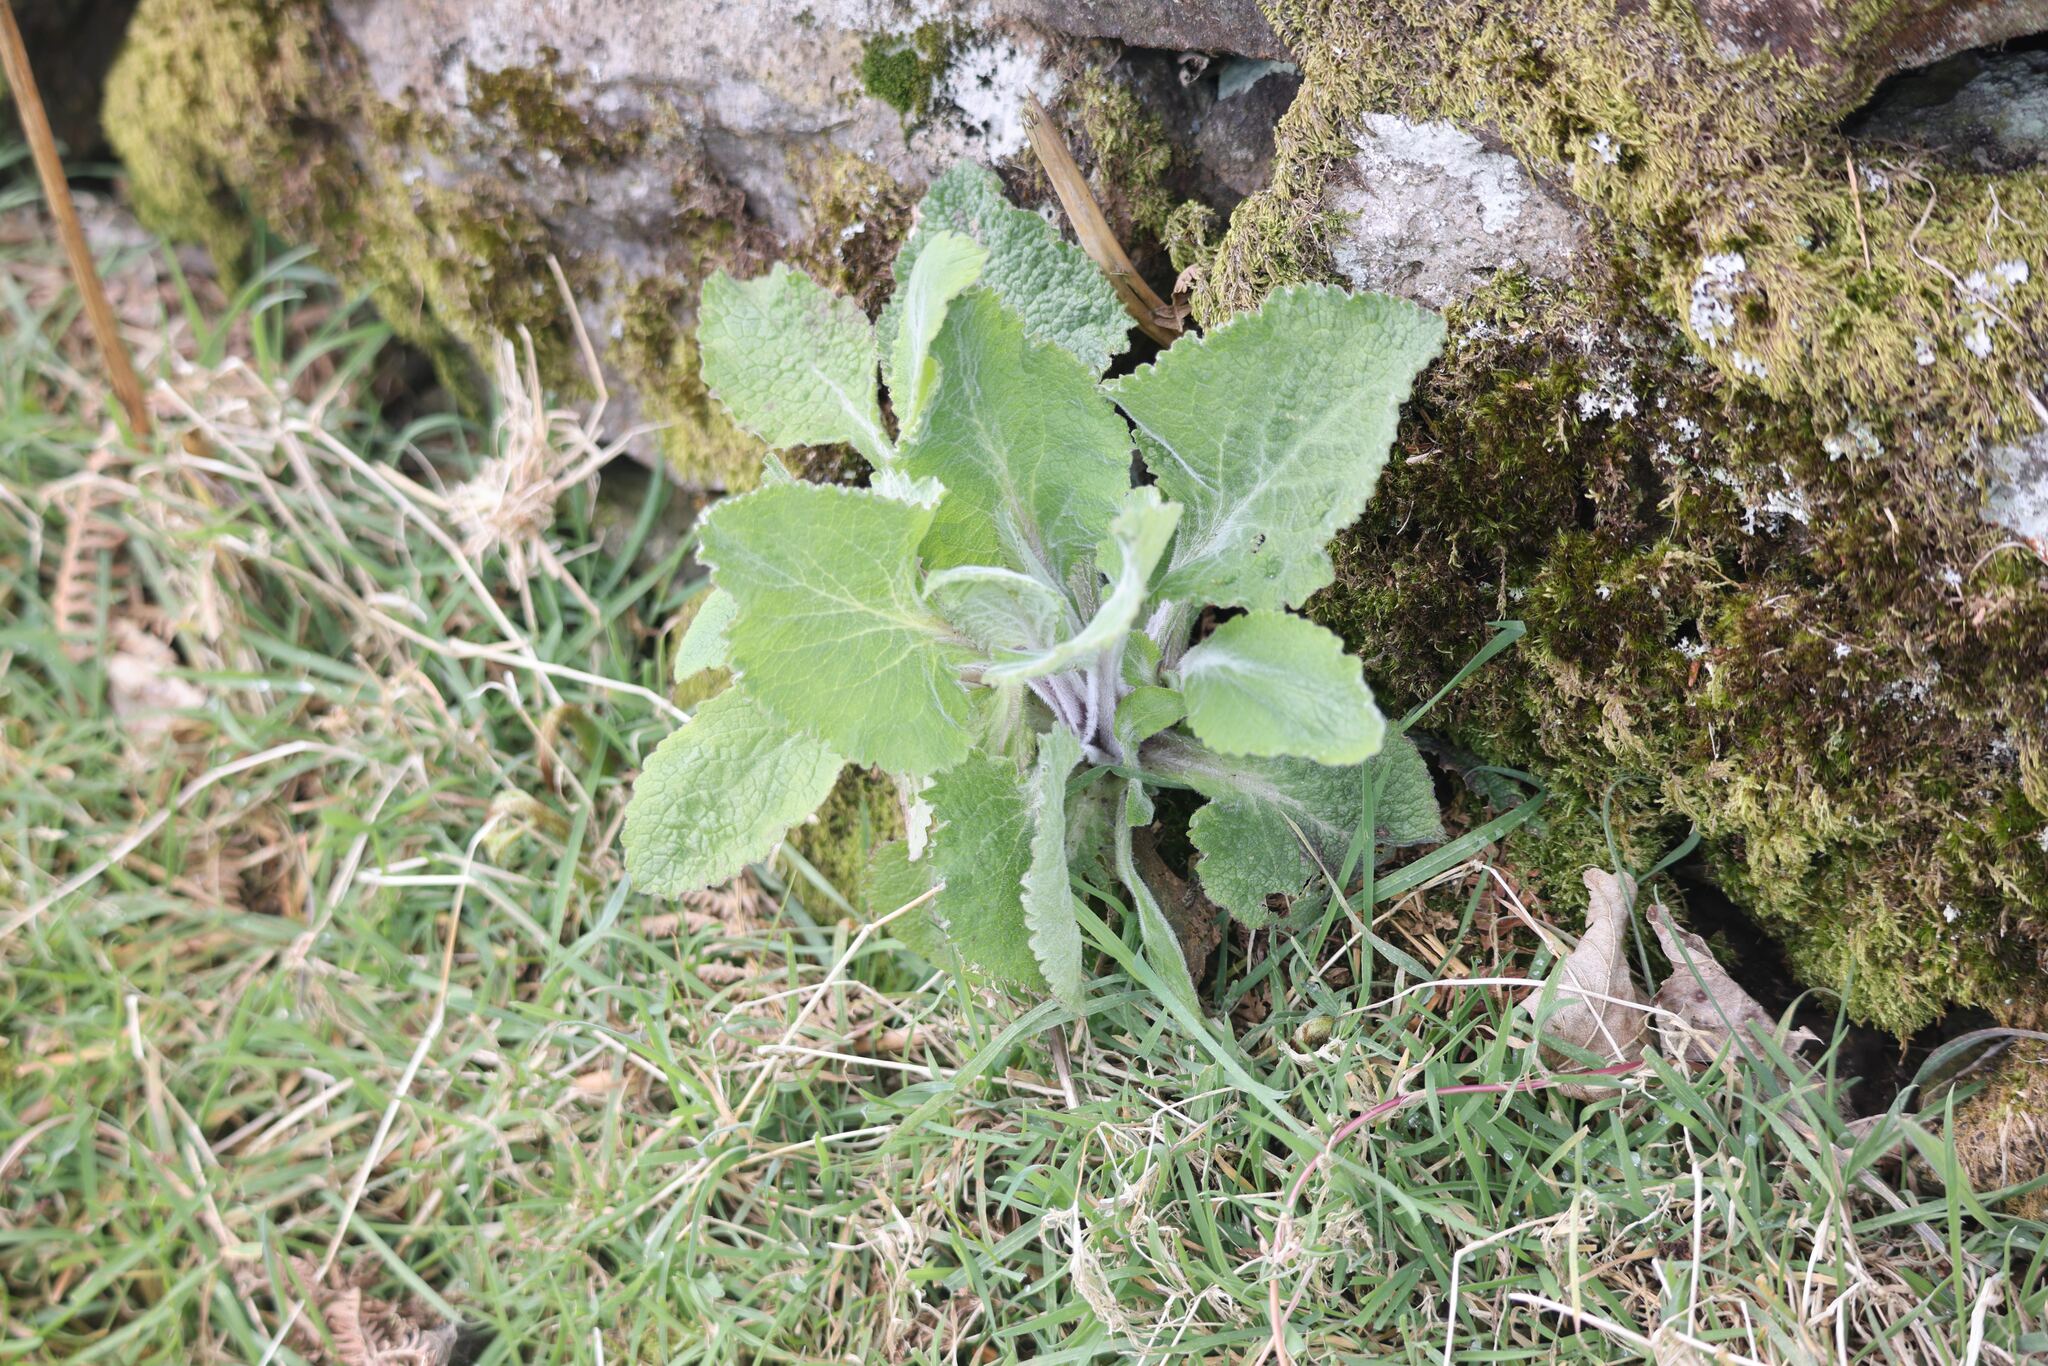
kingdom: Plantae
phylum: Tracheophyta
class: Magnoliopsida
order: Lamiales
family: Plantaginaceae
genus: Digitalis
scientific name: Digitalis purpurea
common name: Foxglove
